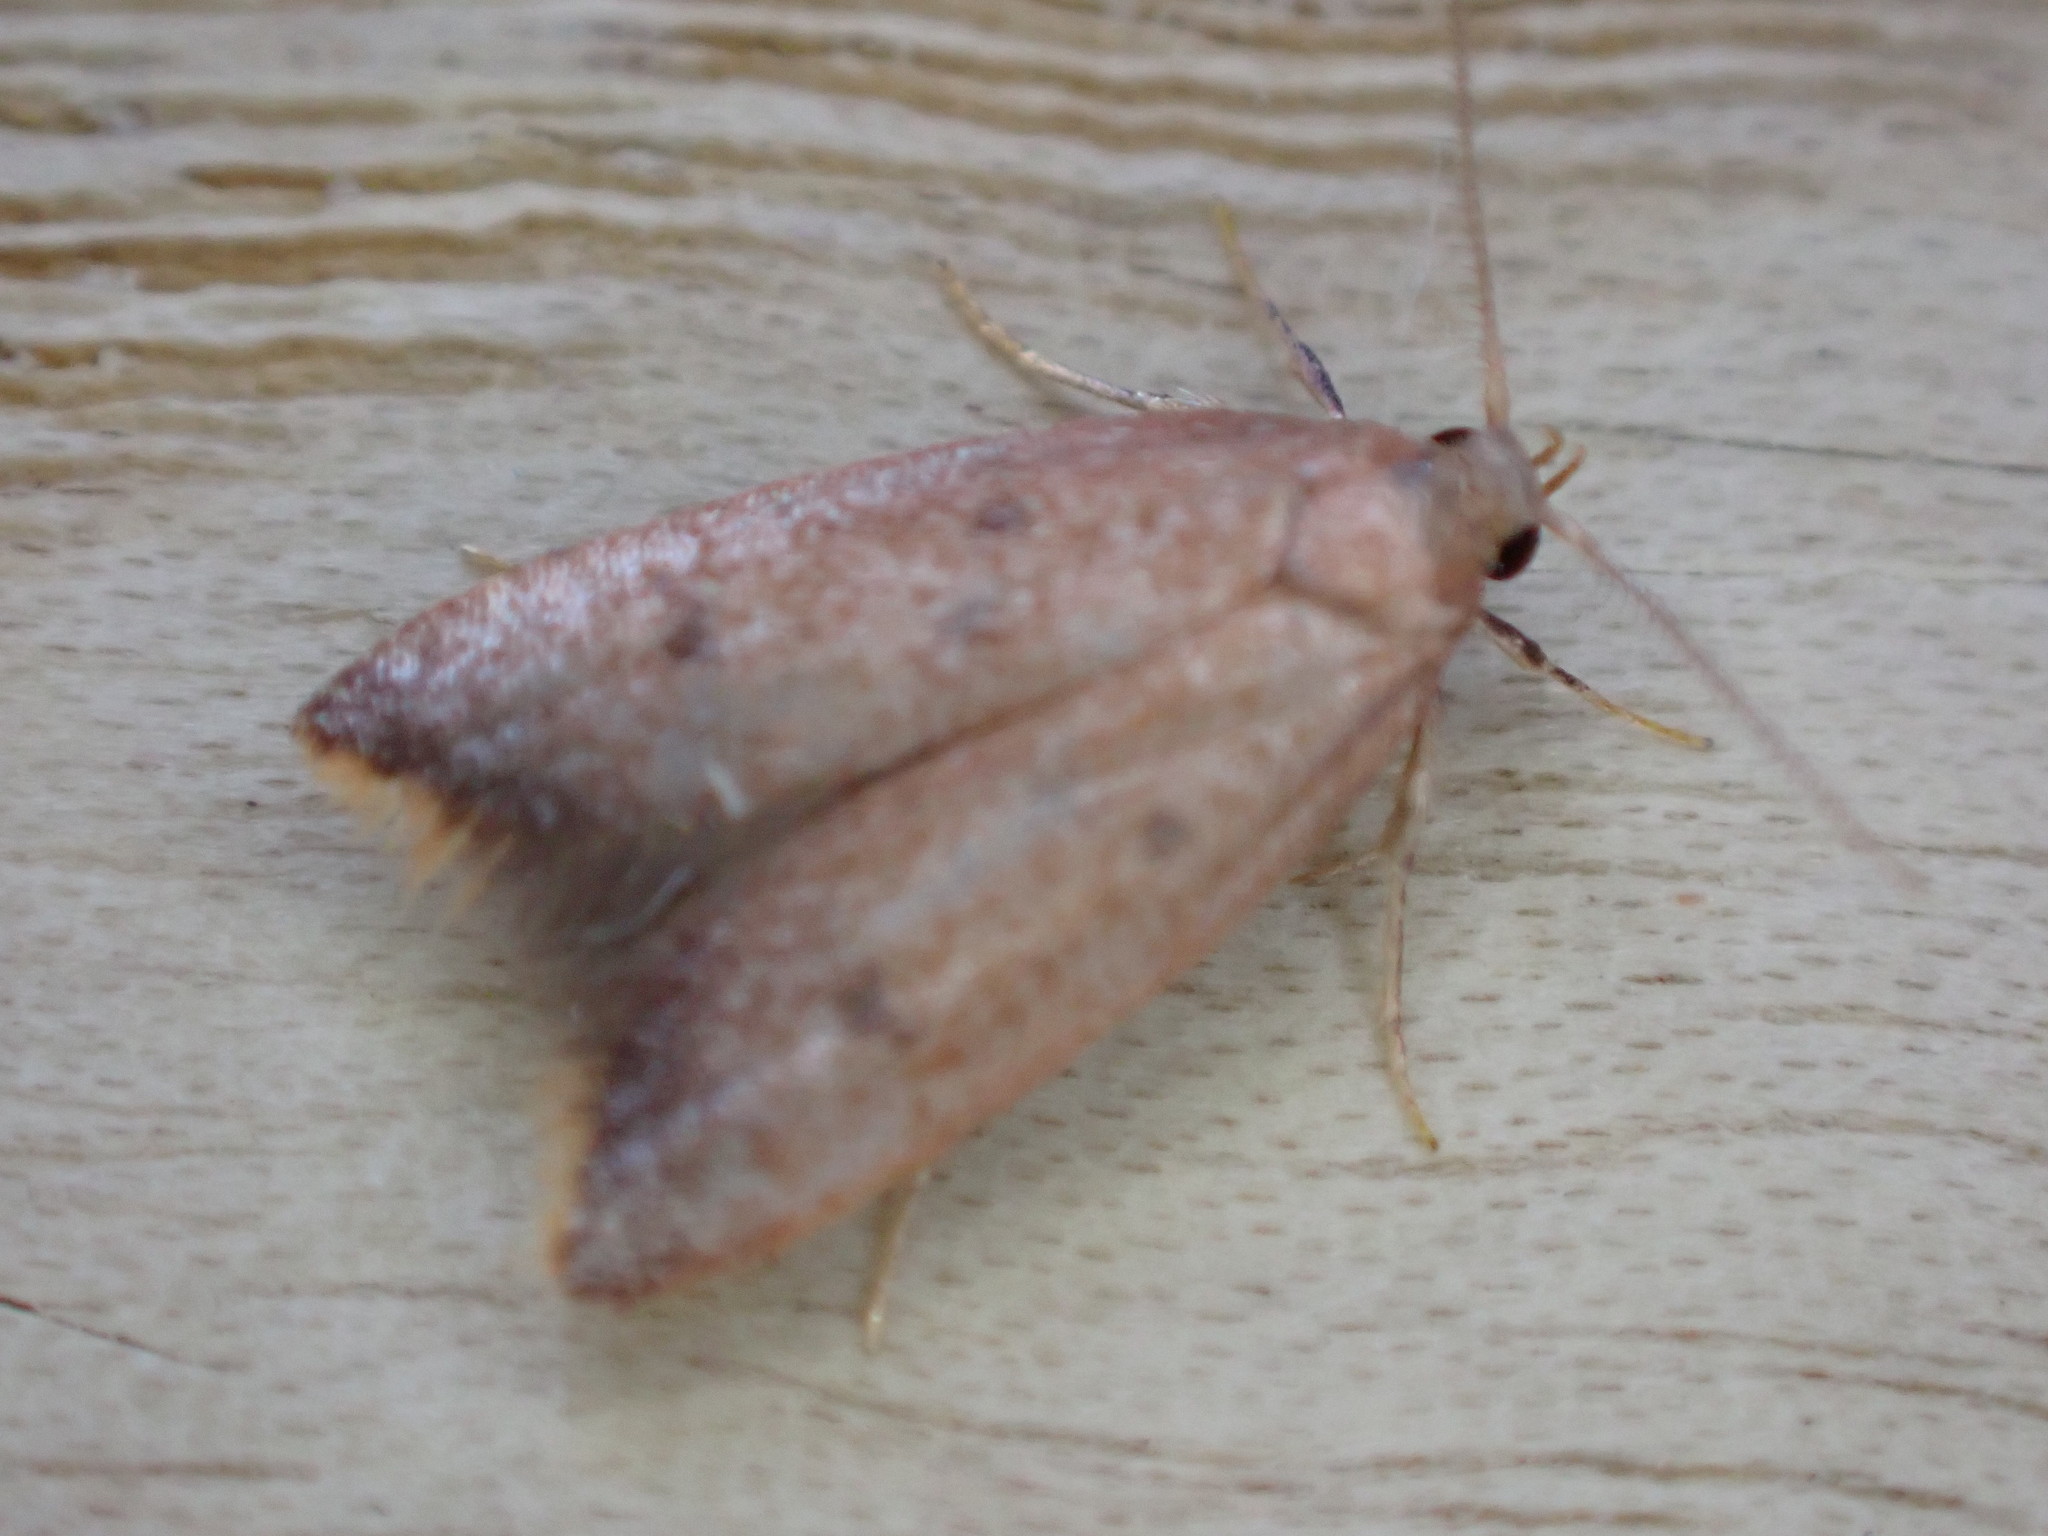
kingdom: Animalia
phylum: Arthropoda
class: Insecta
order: Lepidoptera
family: Oecophoridae
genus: Tachystola
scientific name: Tachystola acroxantha
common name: Ruddy streak
